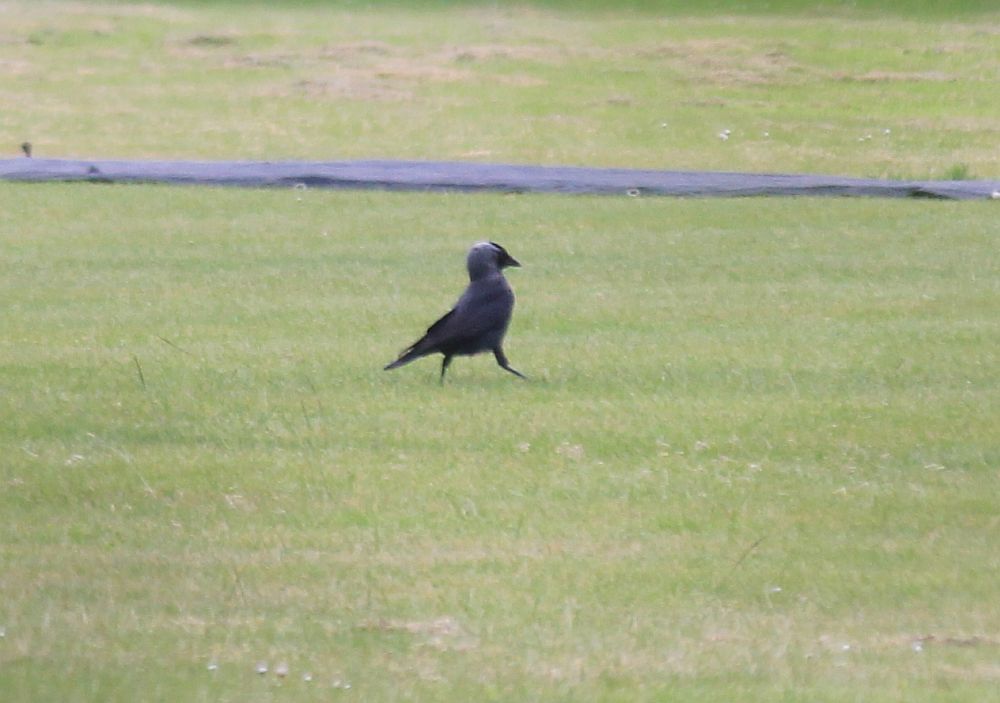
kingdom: Animalia
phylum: Chordata
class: Aves
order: Passeriformes
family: Corvidae
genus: Coloeus
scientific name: Coloeus monedula
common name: Western jackdaw
